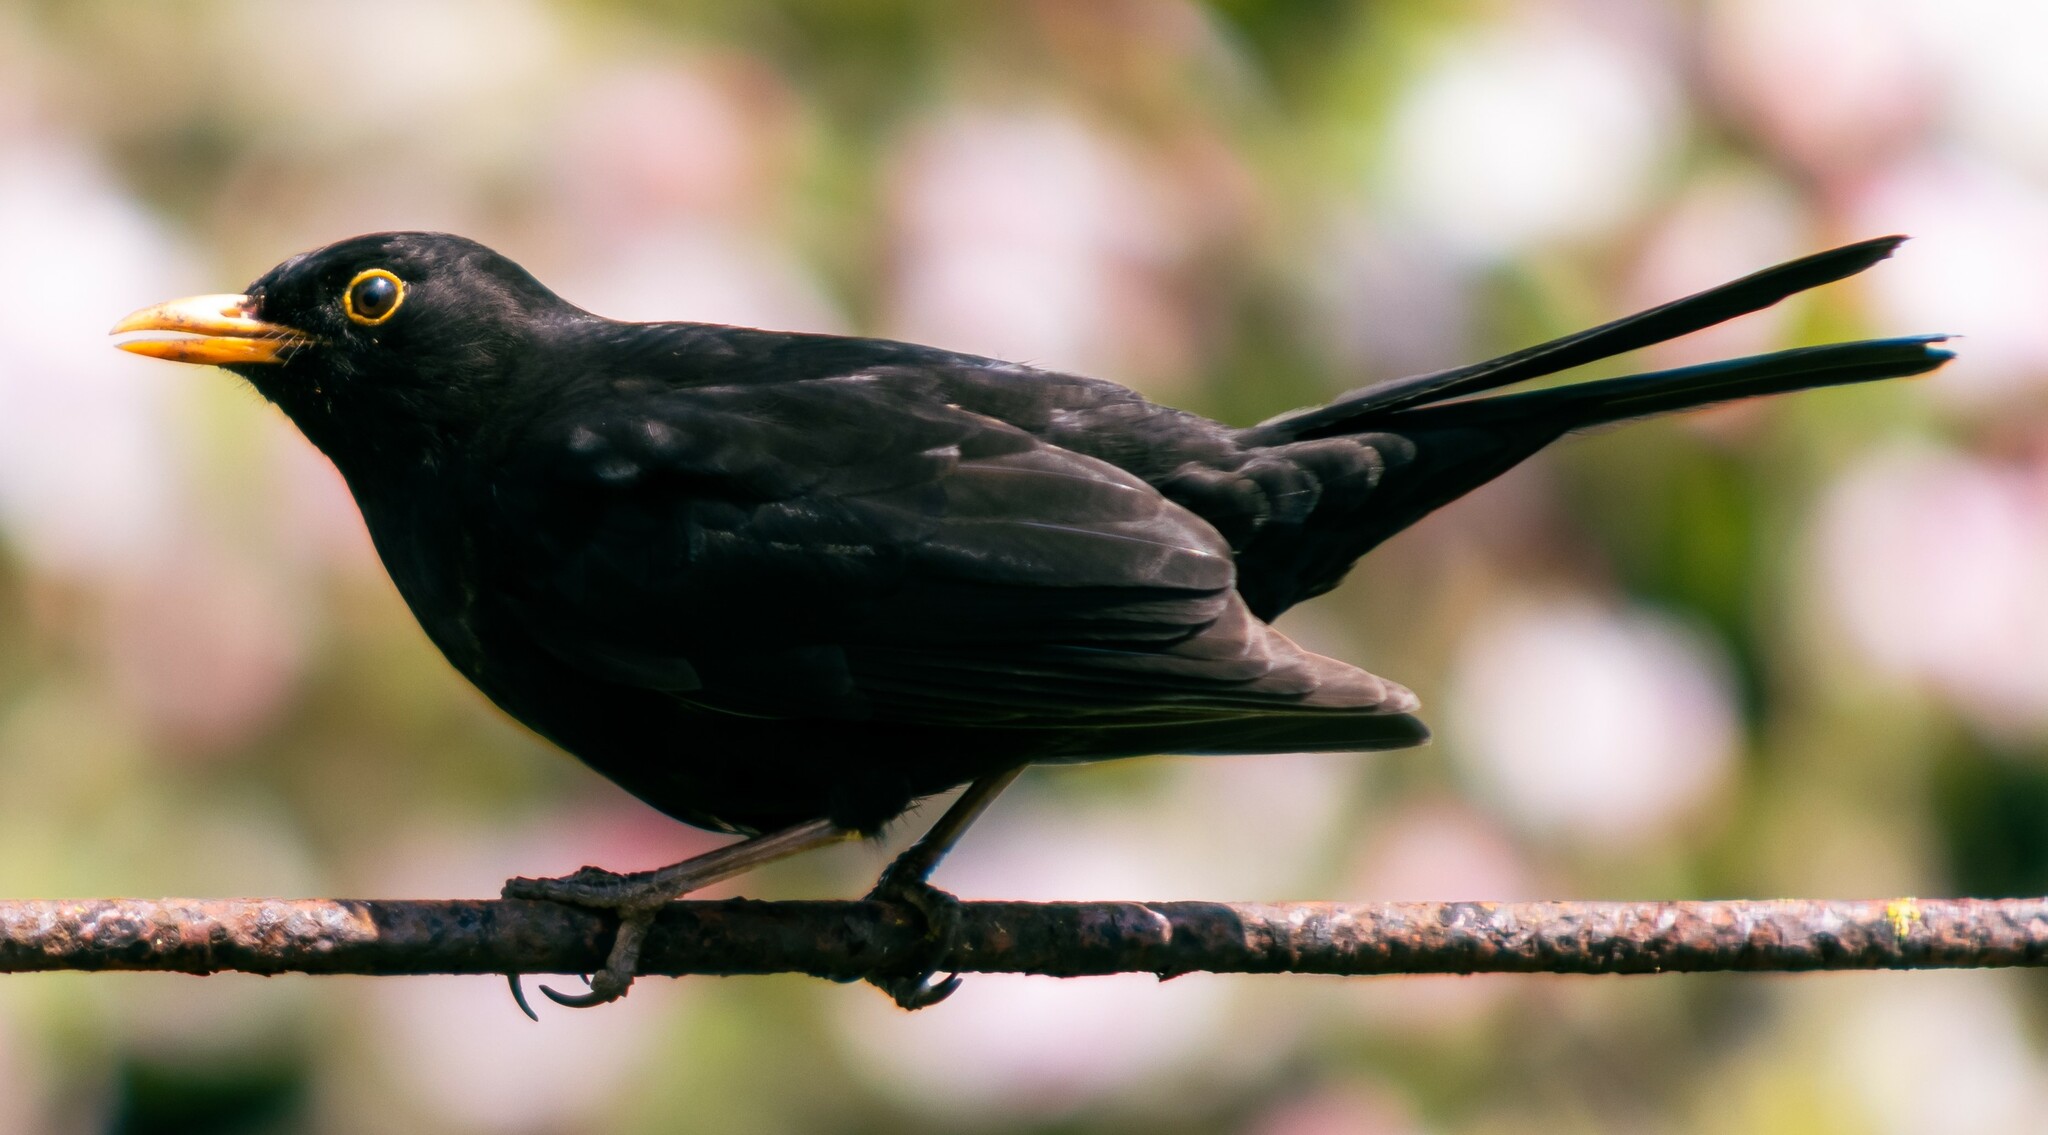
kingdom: Animalia
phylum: Chordata
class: Aves
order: Passeriformes
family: Turdidae
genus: Turdus
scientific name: Turdus merula
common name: Common blackbird
